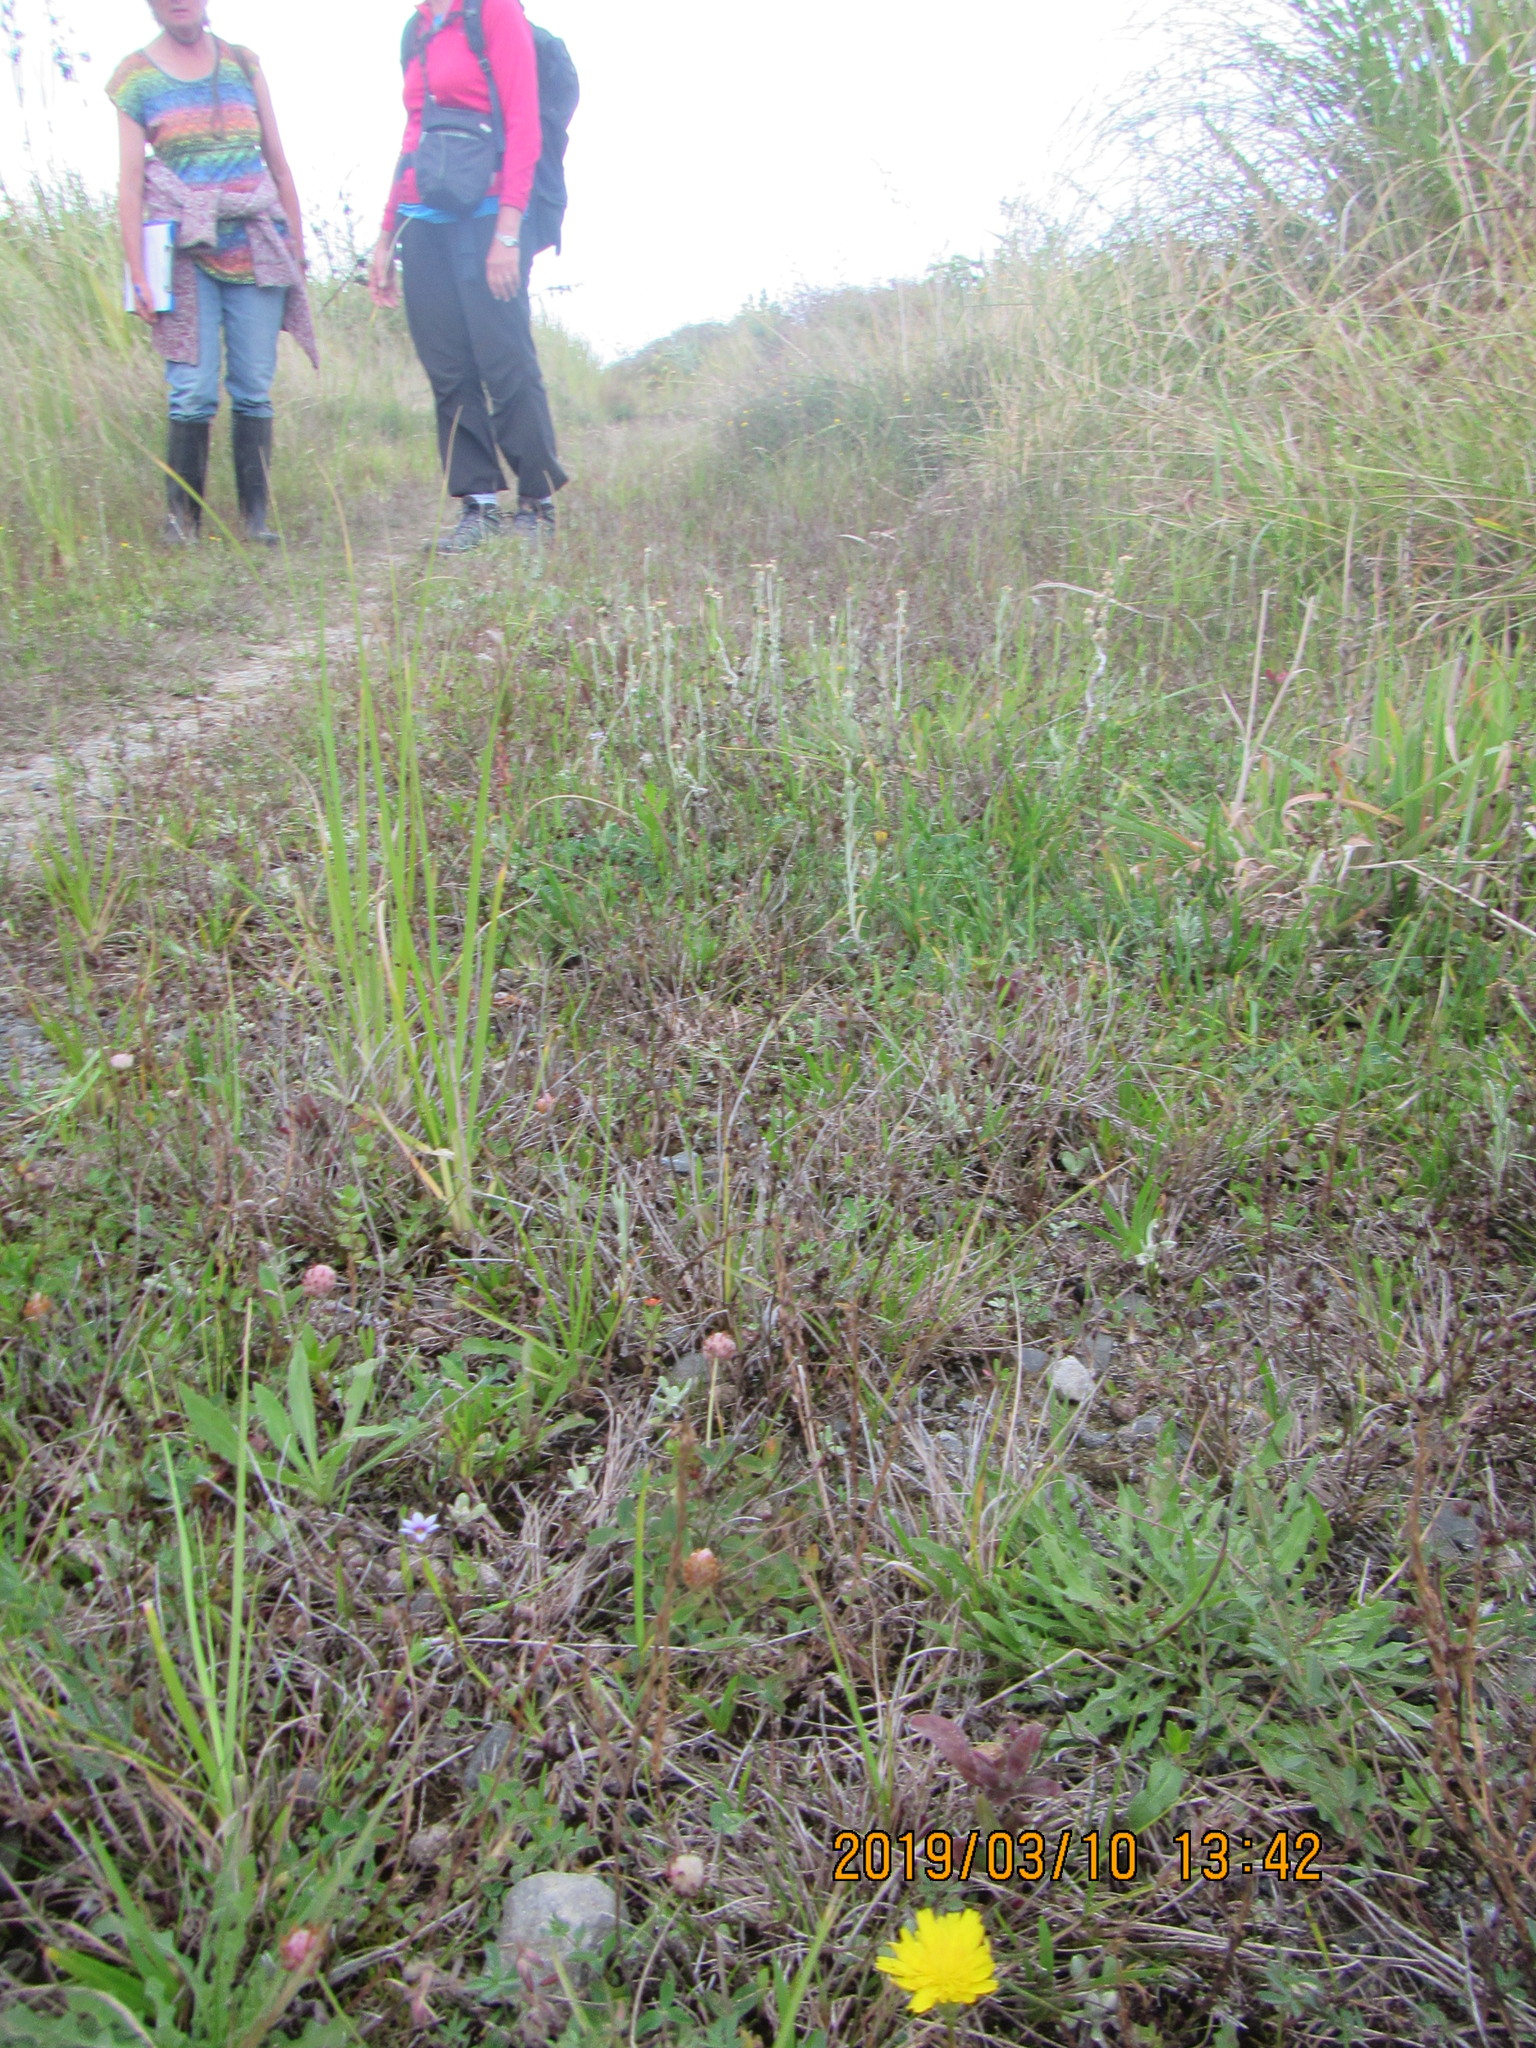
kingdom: Plantae
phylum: Tracheophyta
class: Liliopsida
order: Asparagales
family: Iridaceae
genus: Sisyrinchium
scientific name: Sisyrinchium micranthum
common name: Bermuda pigroot
